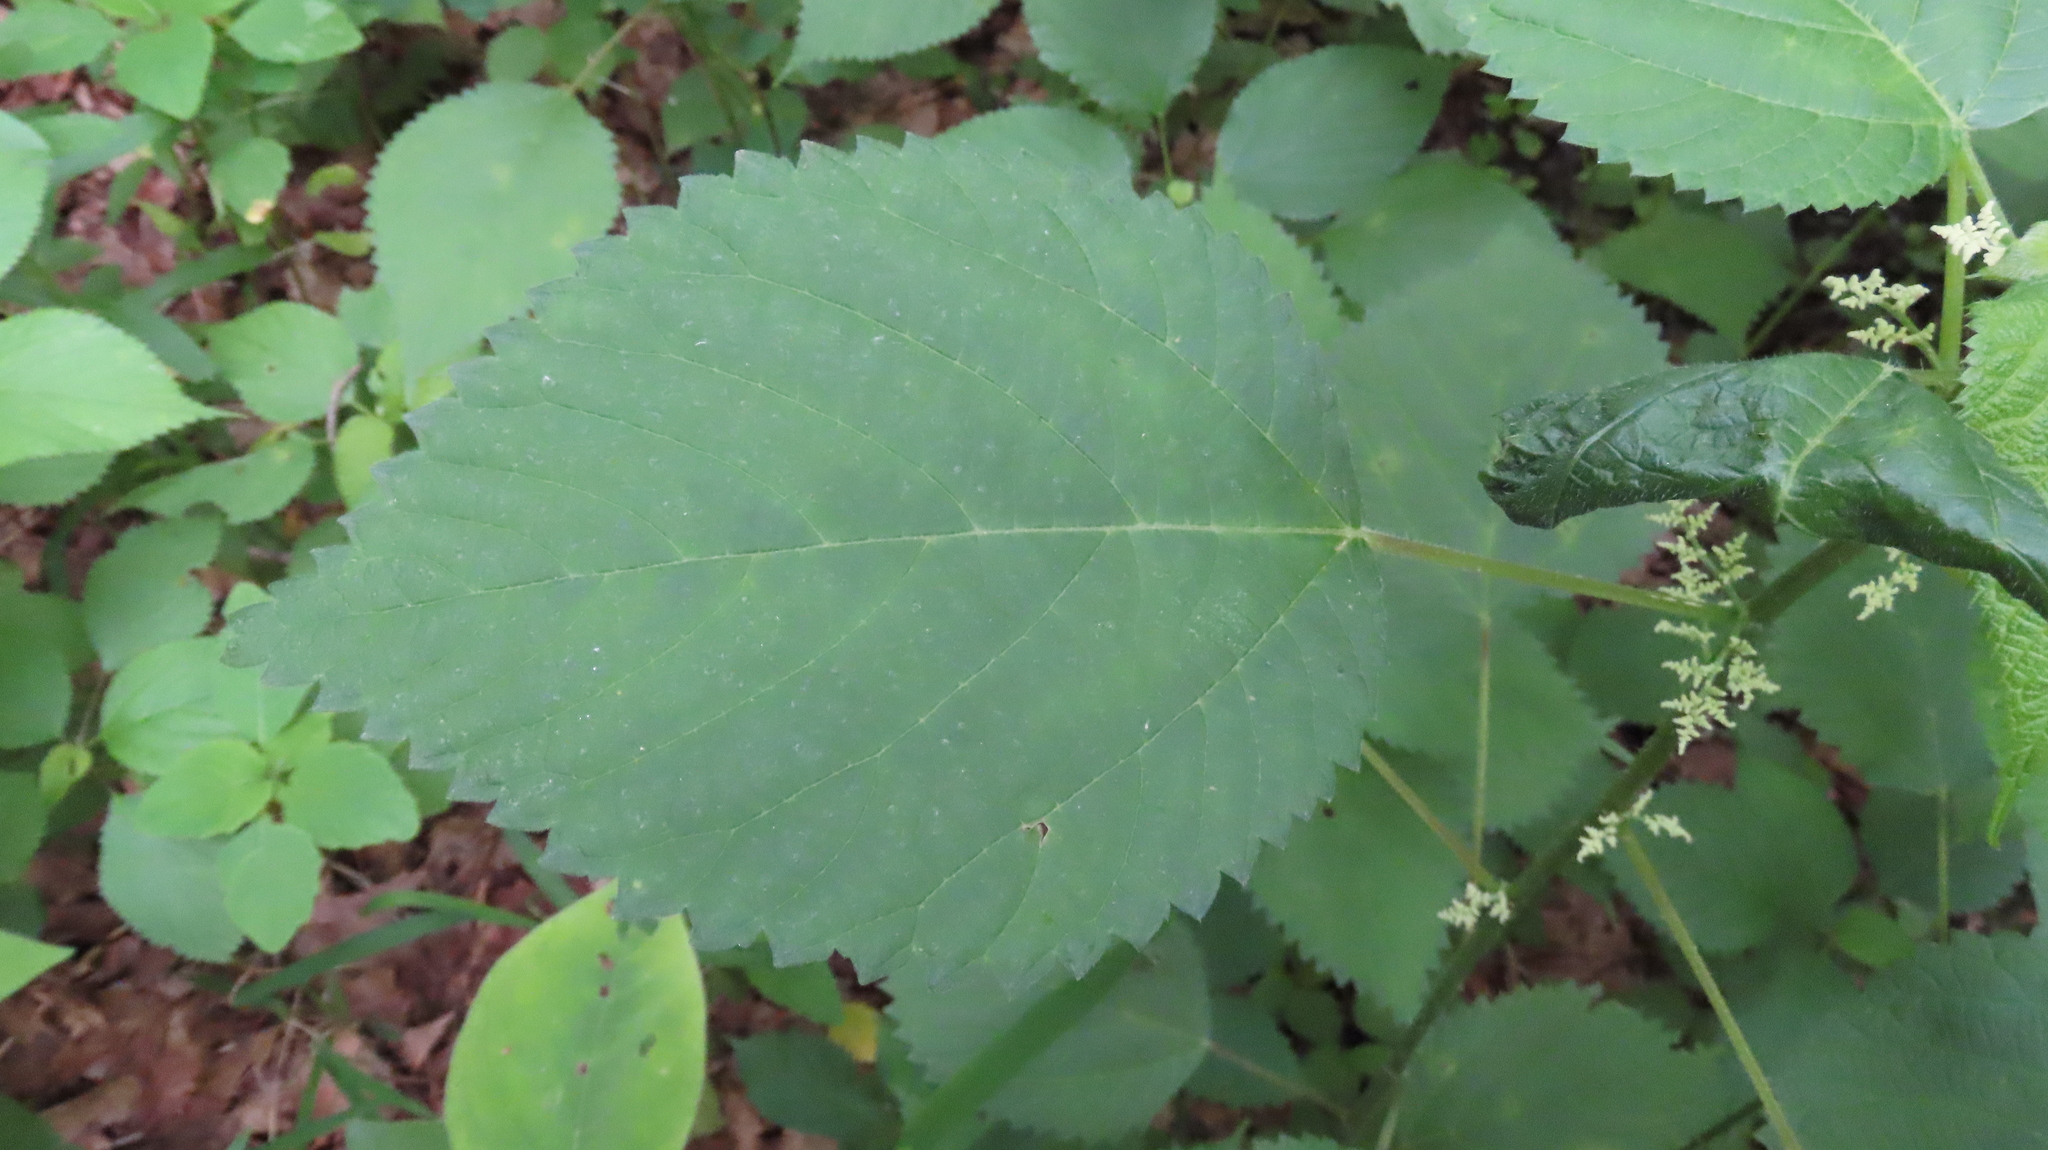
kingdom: Plantae
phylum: Tracheophyta
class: Magnoliopsida
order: Rosales
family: Urticaceae
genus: Laportea
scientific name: Laportea canadensis
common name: Canada nettle
